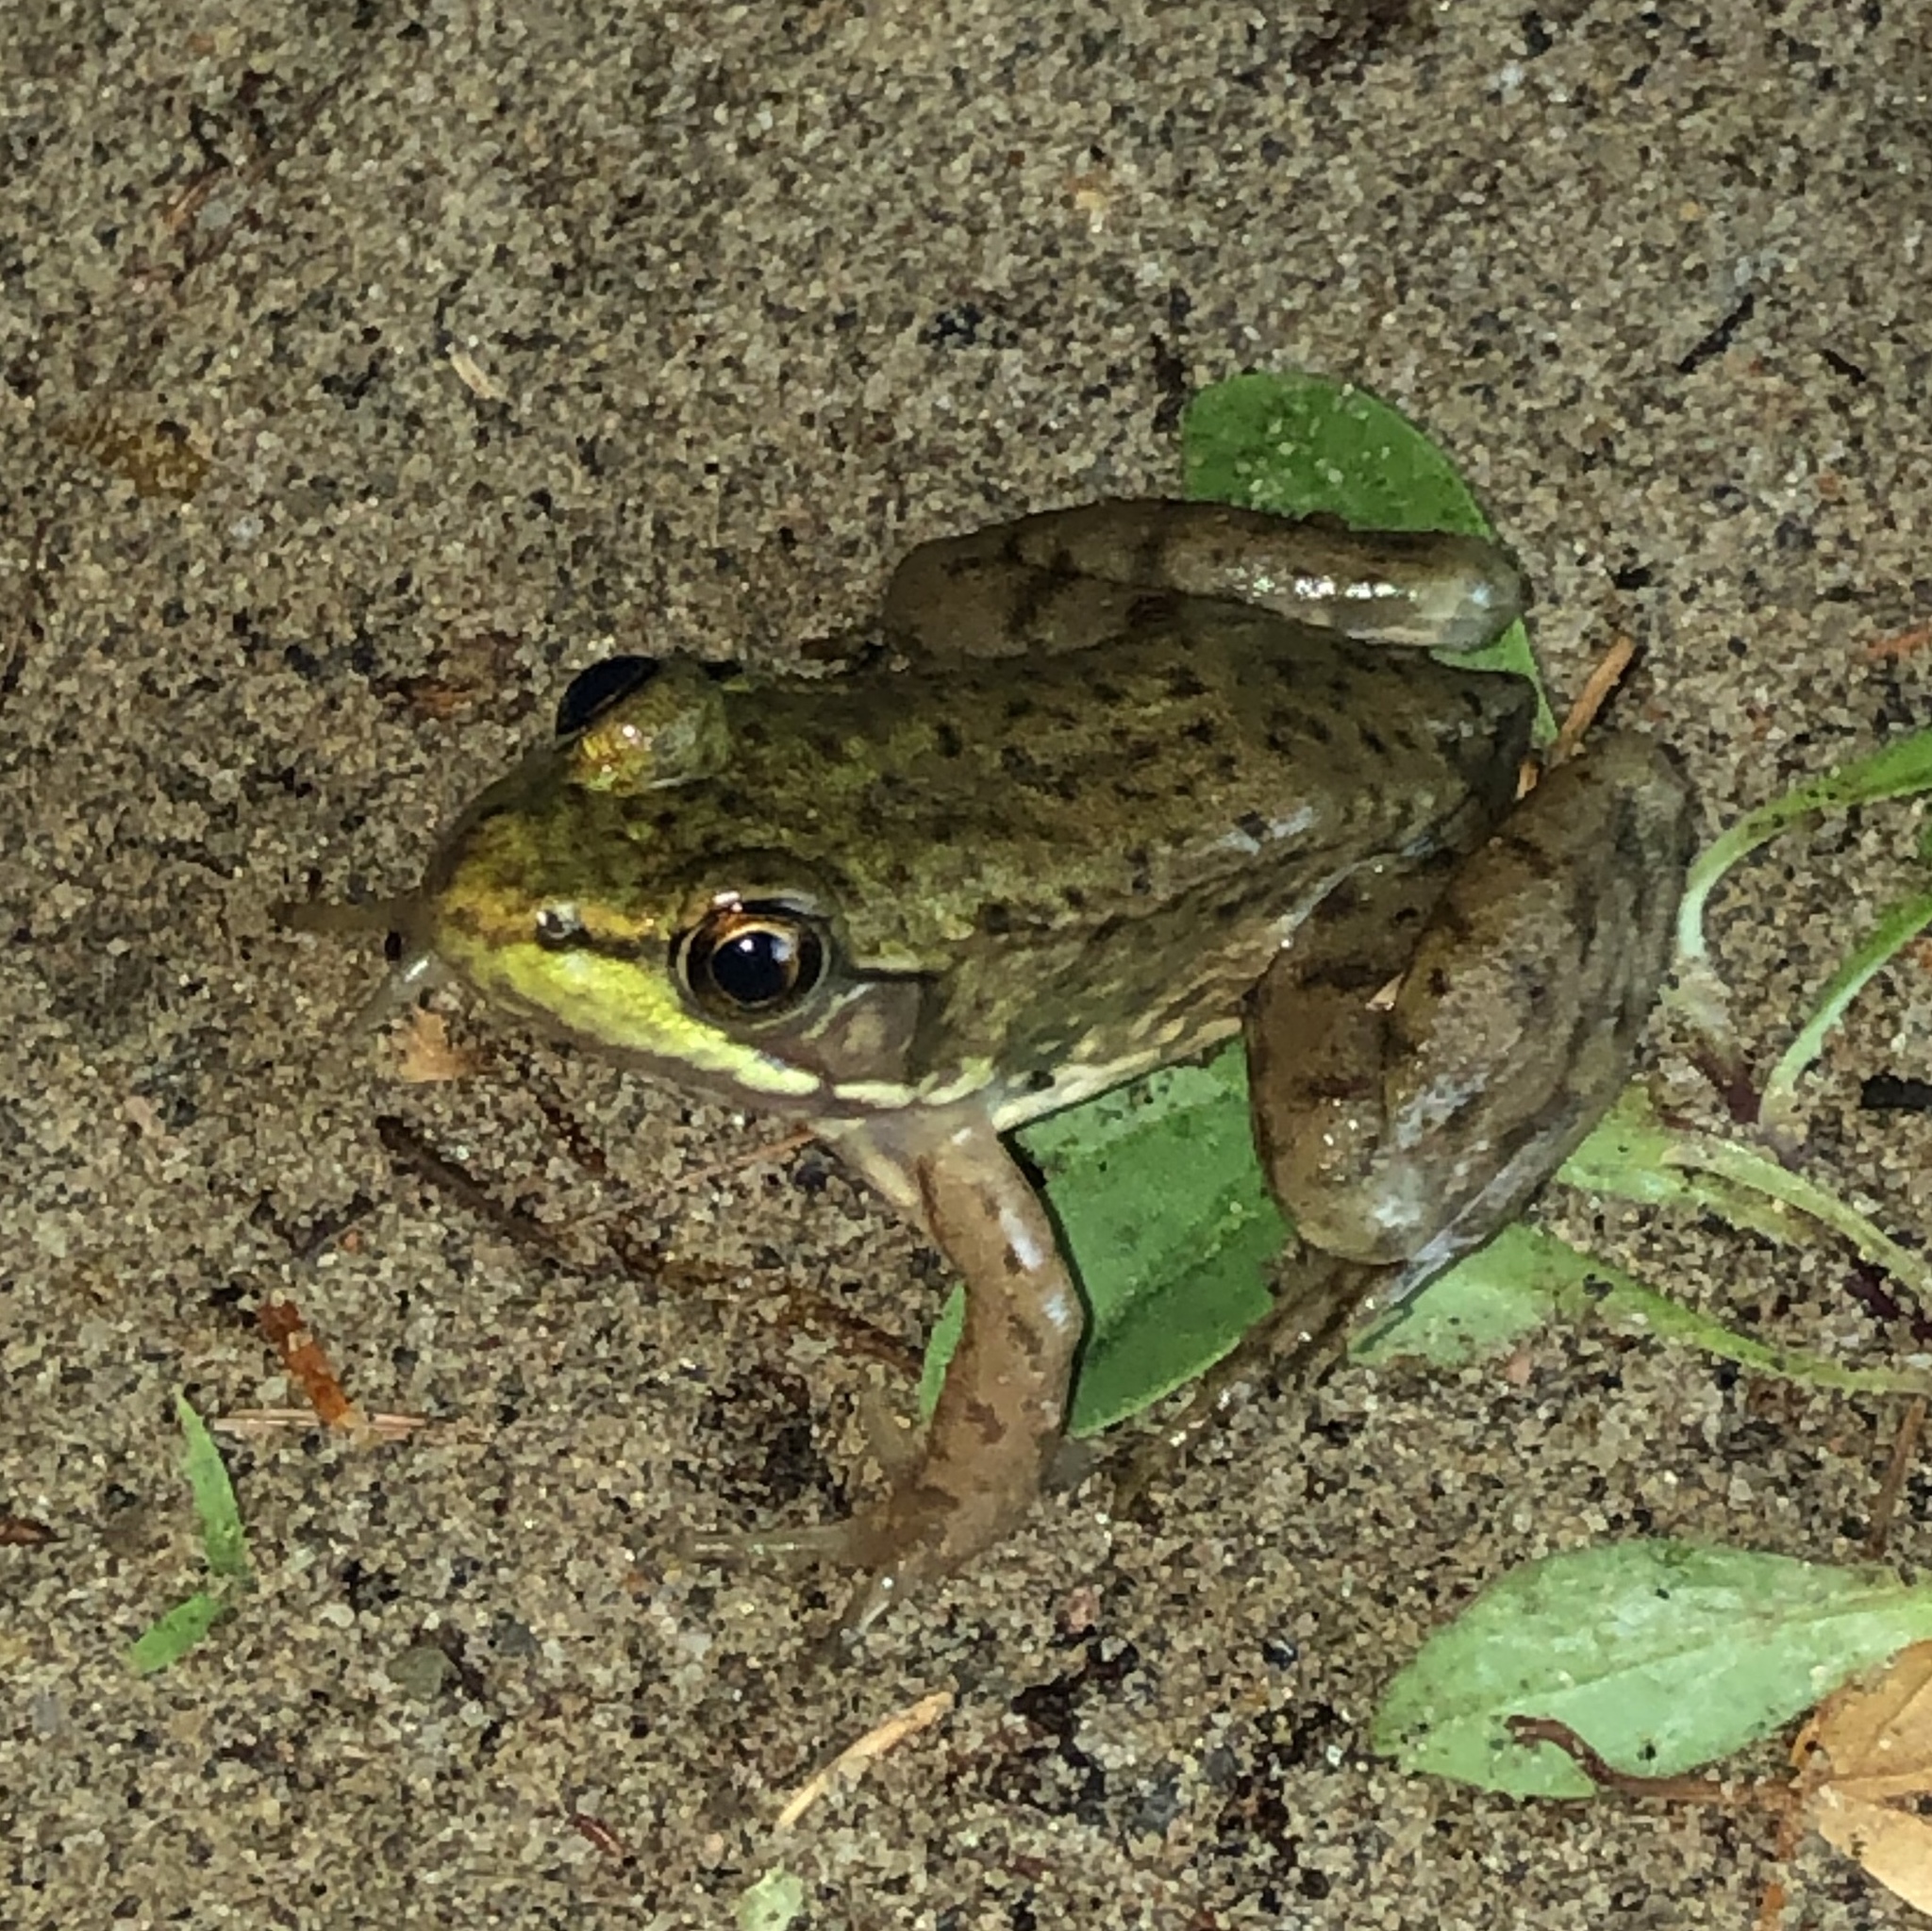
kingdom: Animalia
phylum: Chordata
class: Amphibia
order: Anura
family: Ranidae
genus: Lithobates
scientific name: Lithobates clamitans
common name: Green frog
